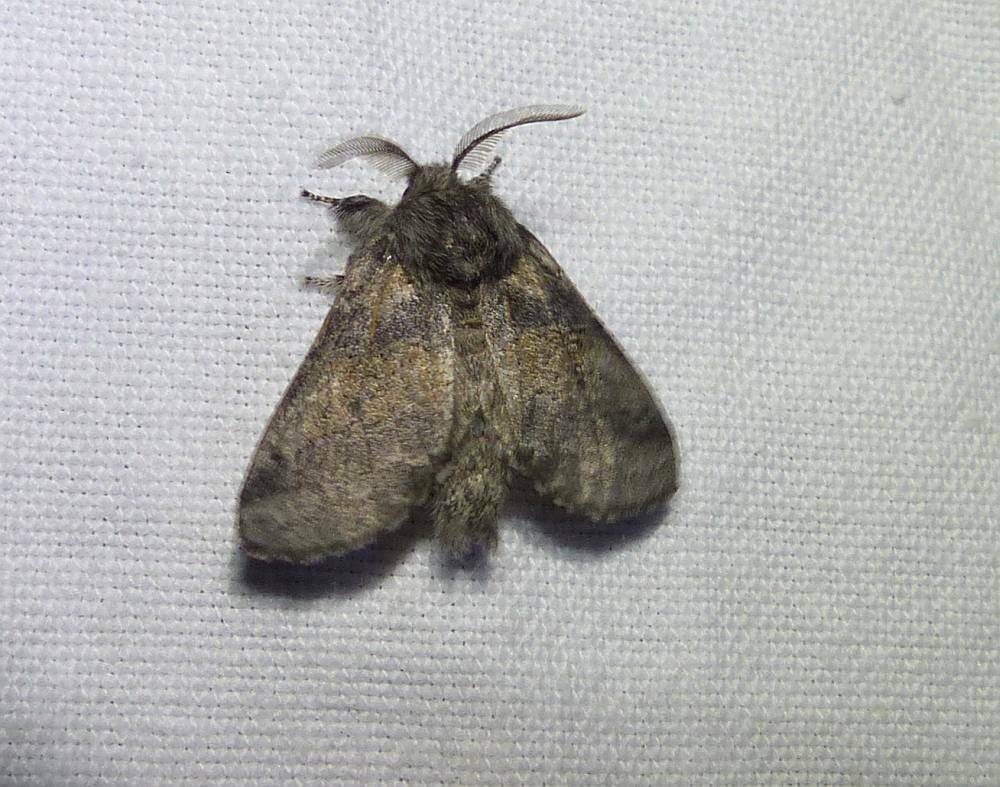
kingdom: Animalia
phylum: Arthropoda
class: Insecta
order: Lepidoptera
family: Notodontidae
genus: Gluphisia
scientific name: Gluphisia septentrionis
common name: Common gluphisia
